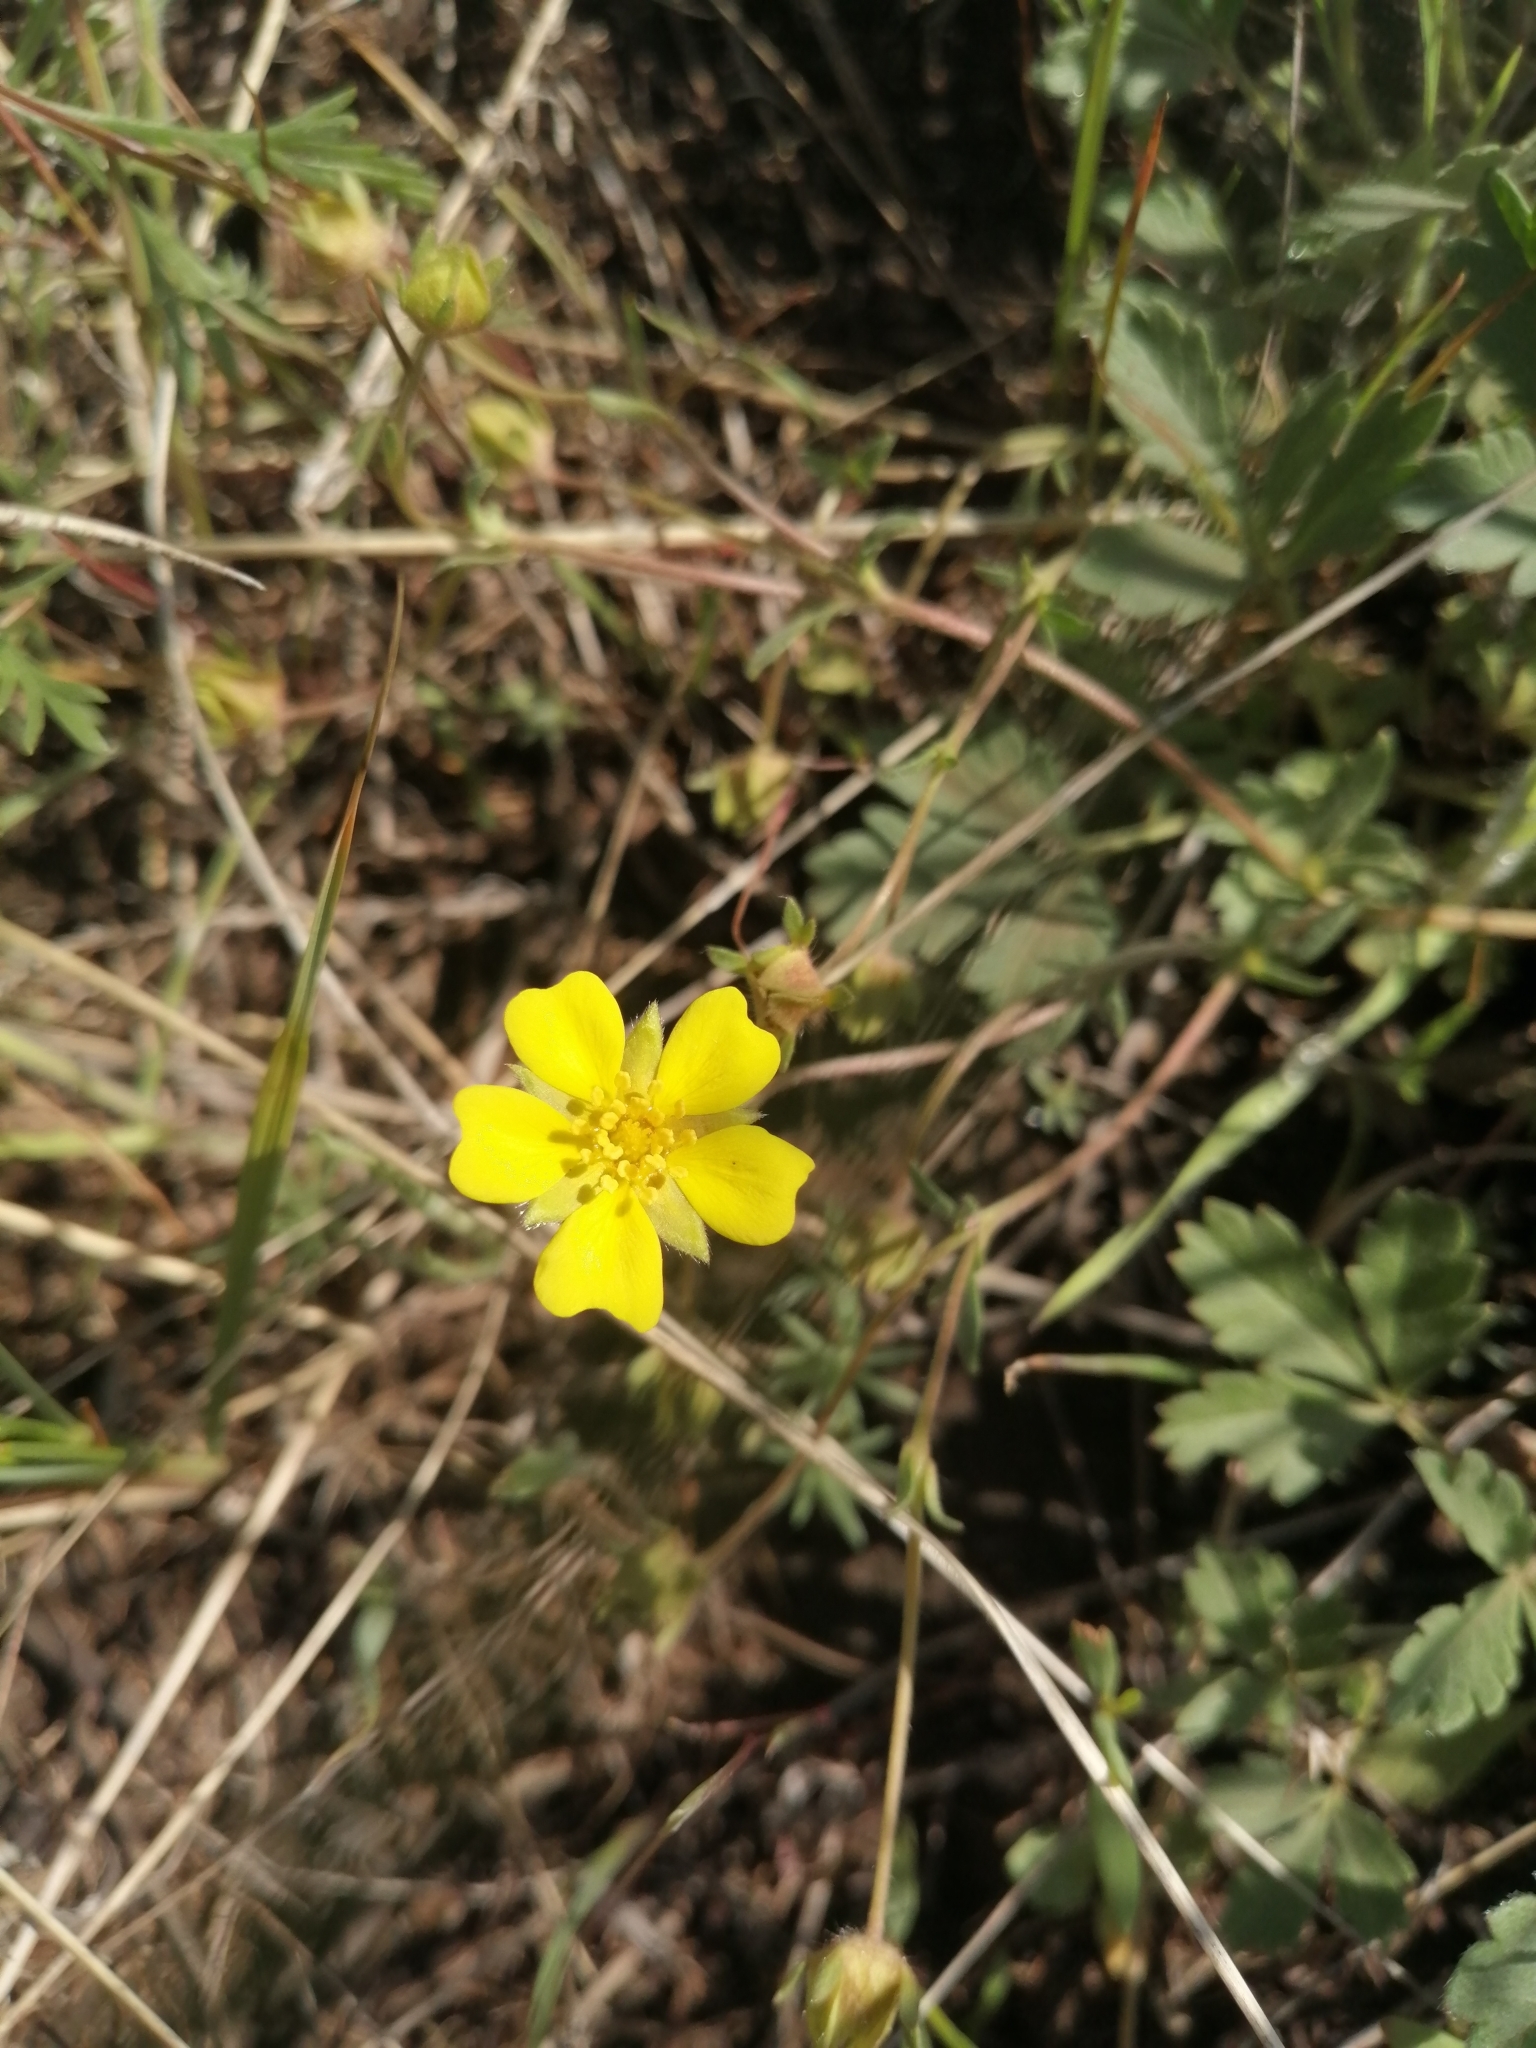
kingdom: Plantae
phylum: Tracheophyta
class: Magnoliopsida
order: Rosales
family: Rosaceae
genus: Potentilla
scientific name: Potentilla glaucescens
